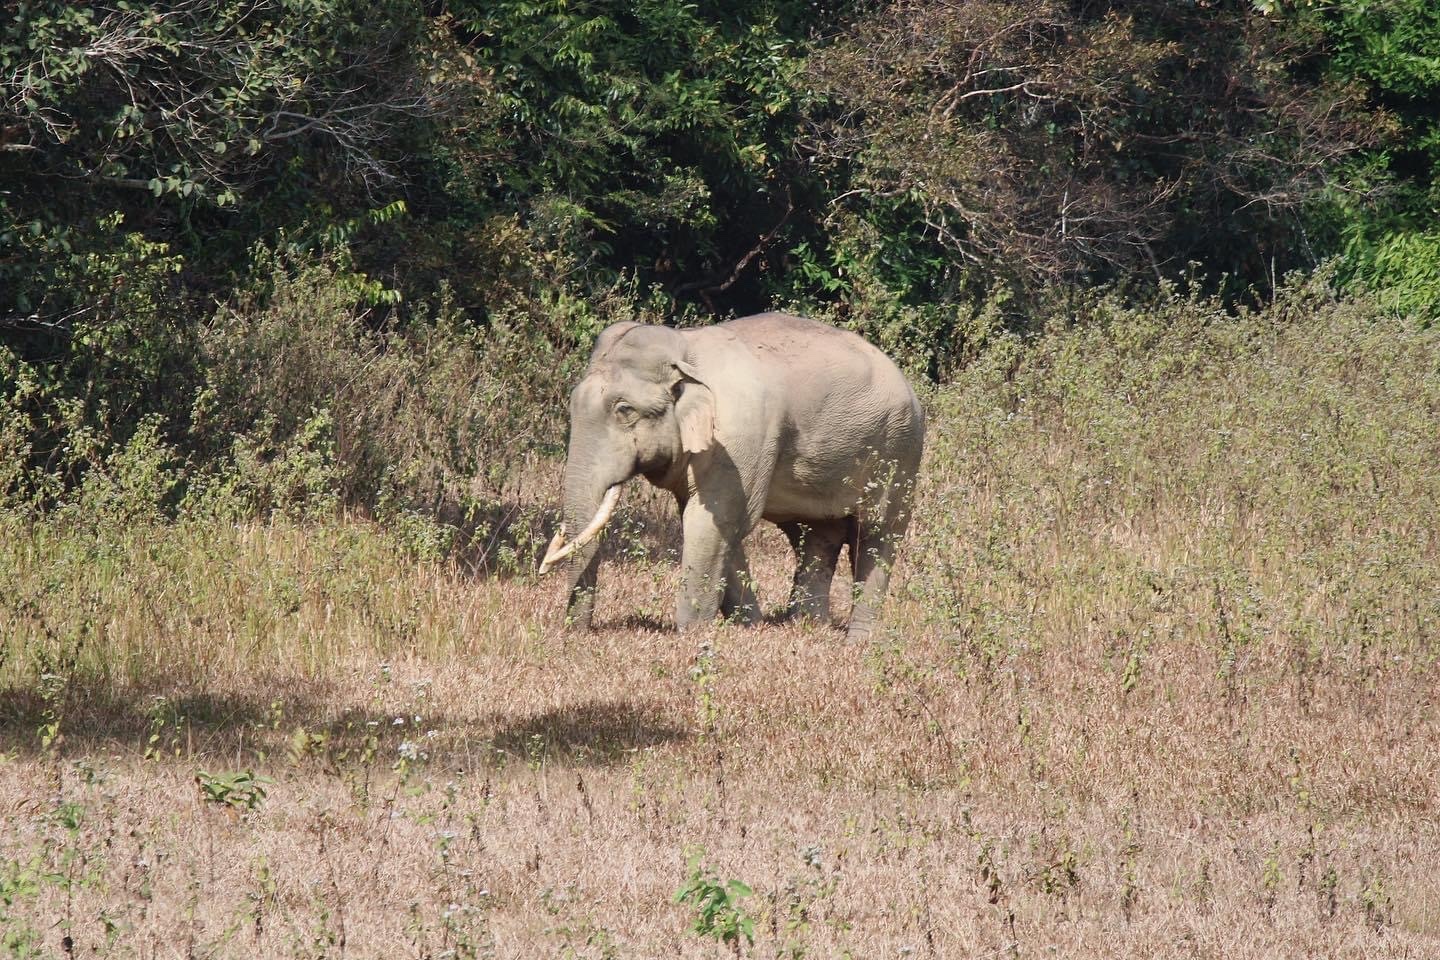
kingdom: Animalia
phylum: Chordata
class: Mammalia
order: Proboscidea
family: Elephantidae
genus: Elephas
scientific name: Elephas maximus
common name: Asian elephant
